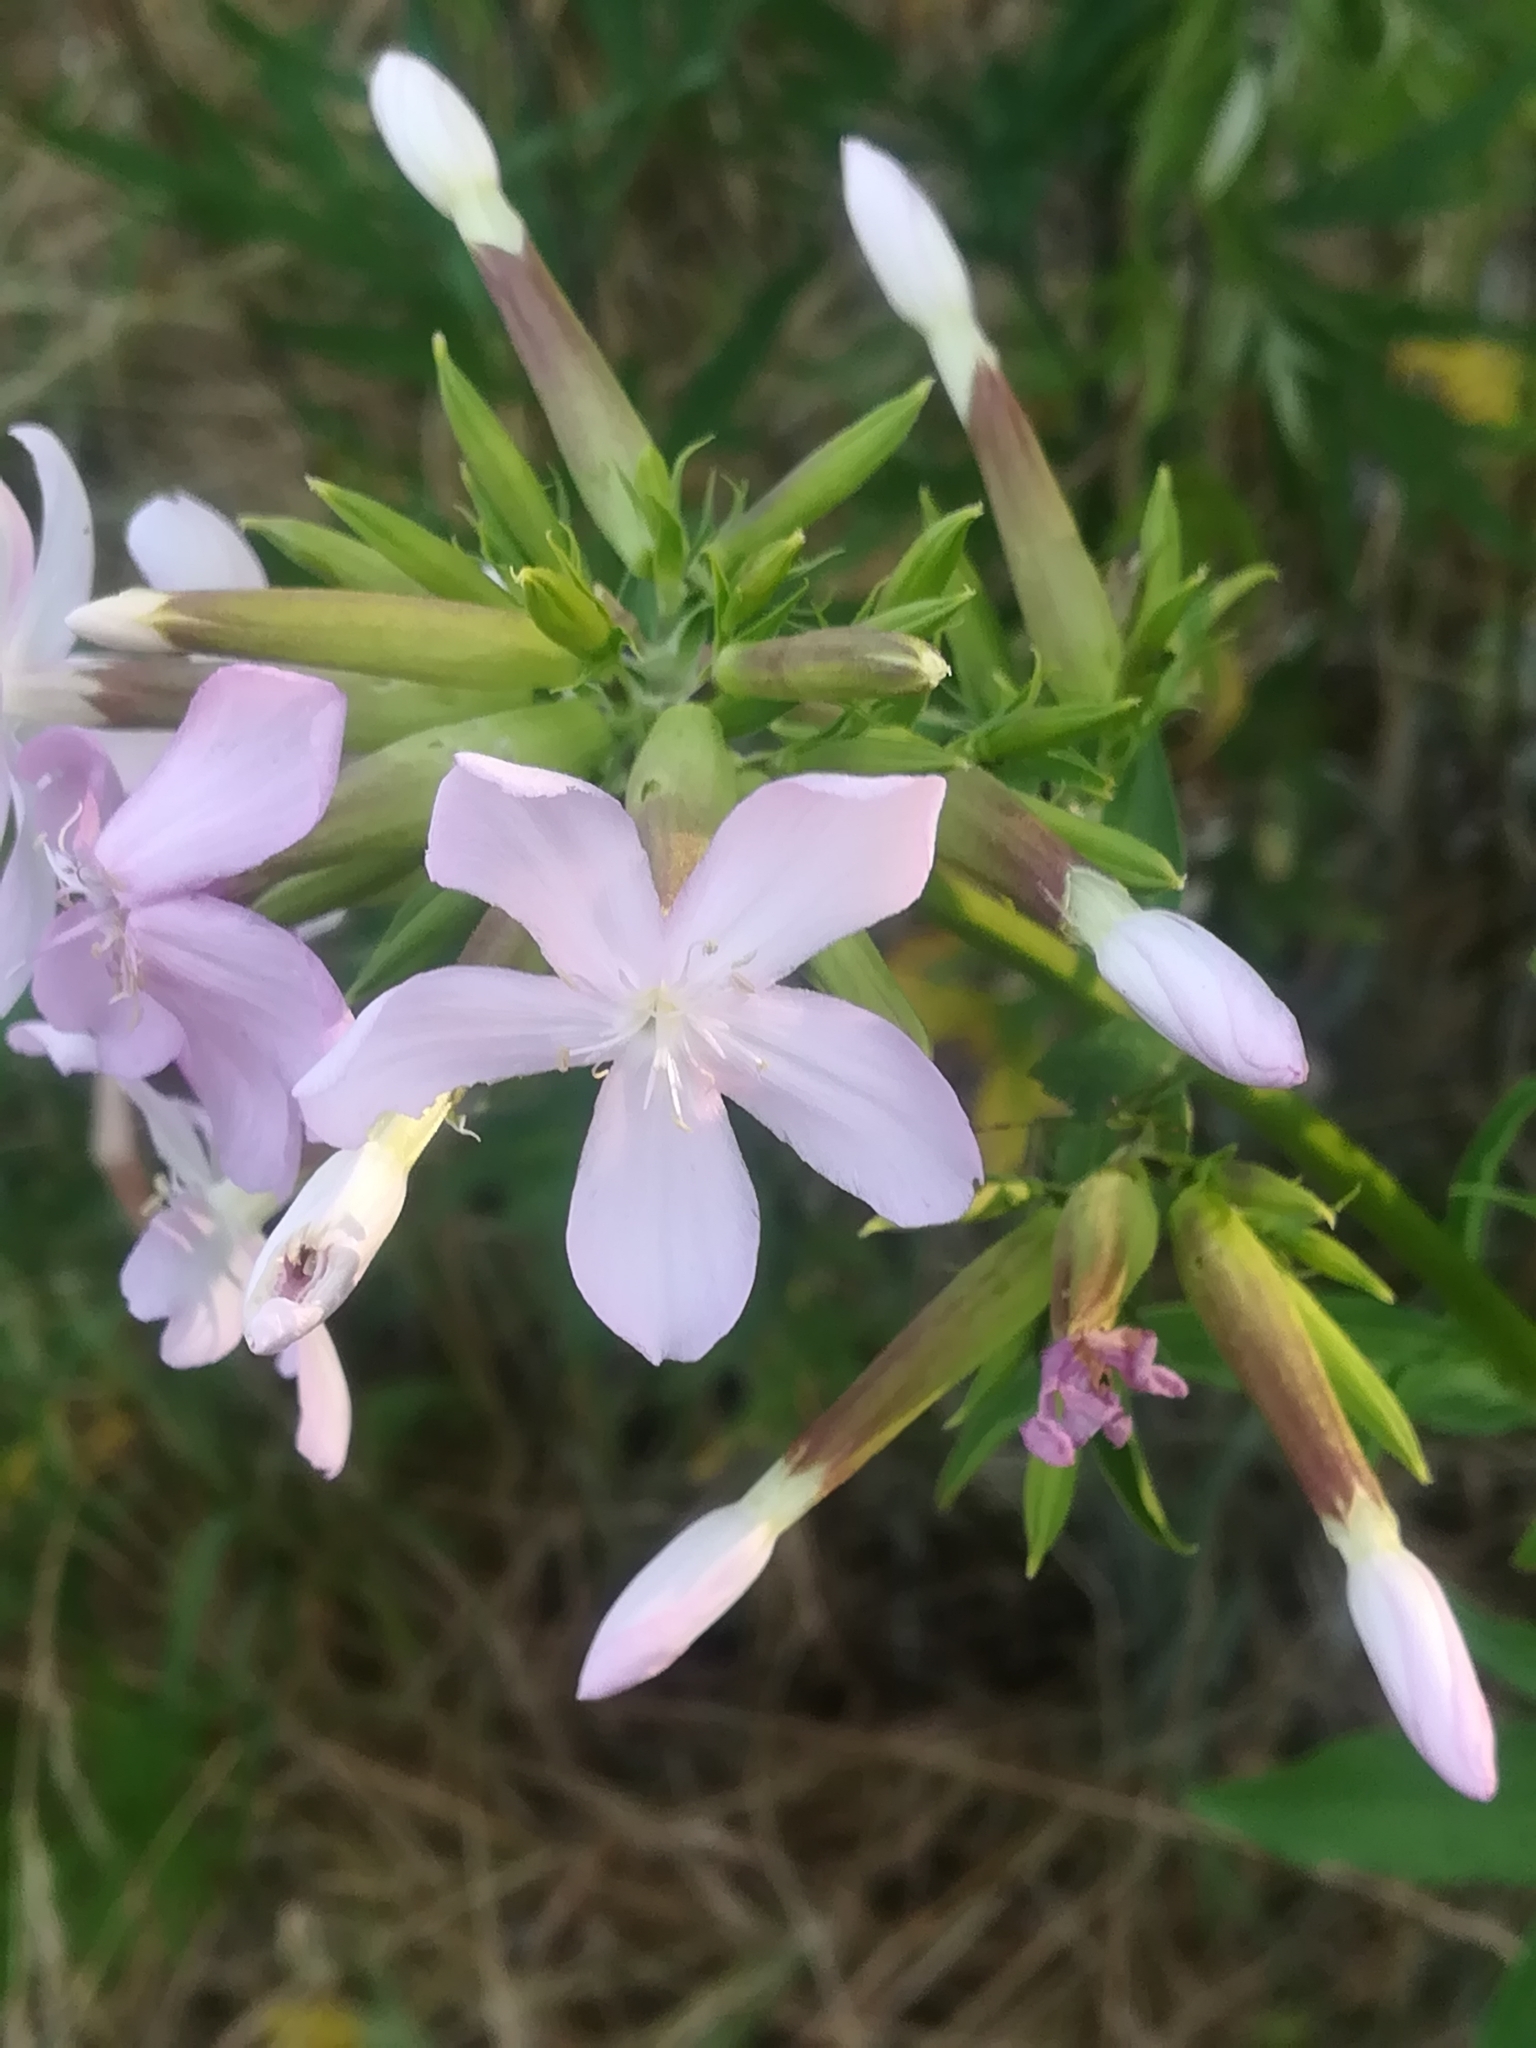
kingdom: Plantae
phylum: Tracheophyta
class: Magnoliopsida
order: Caryophyllales
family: Caryophyllaceae
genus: Saponaria
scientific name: Saponaria officinalis
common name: Soapwort
